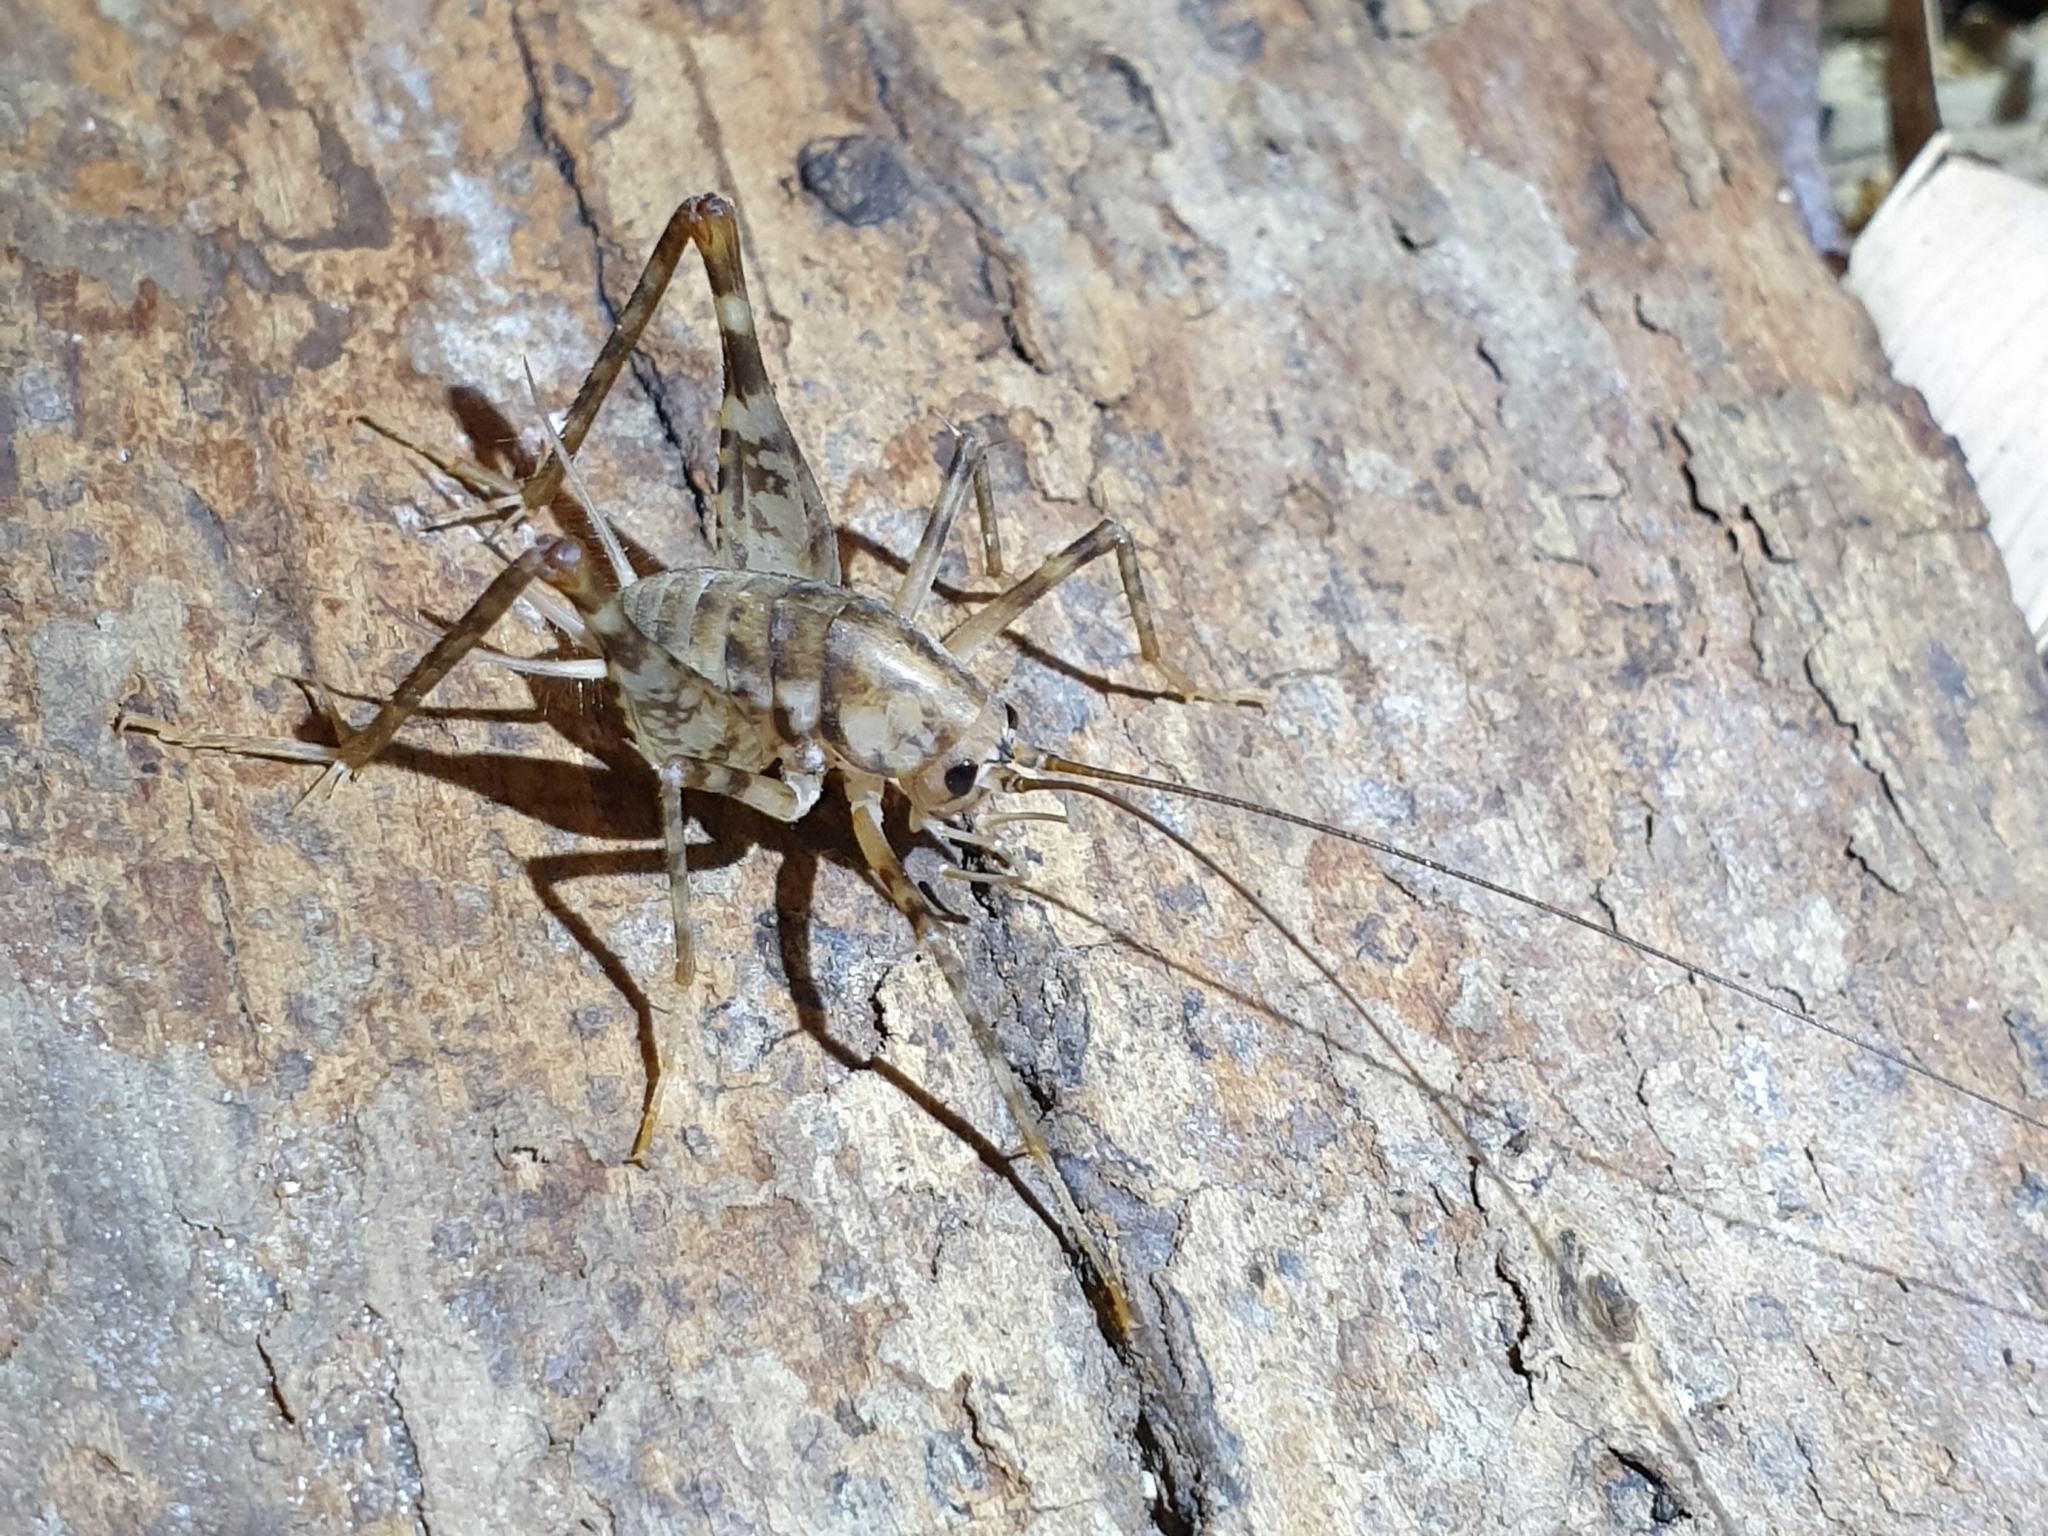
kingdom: Animalia
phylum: Arthropoda
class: Insecta
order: Orthoptera
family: Rhaphidophoridae
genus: Tachycines
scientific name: Tachycines asynamorus
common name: Greenhouse camel cricket
